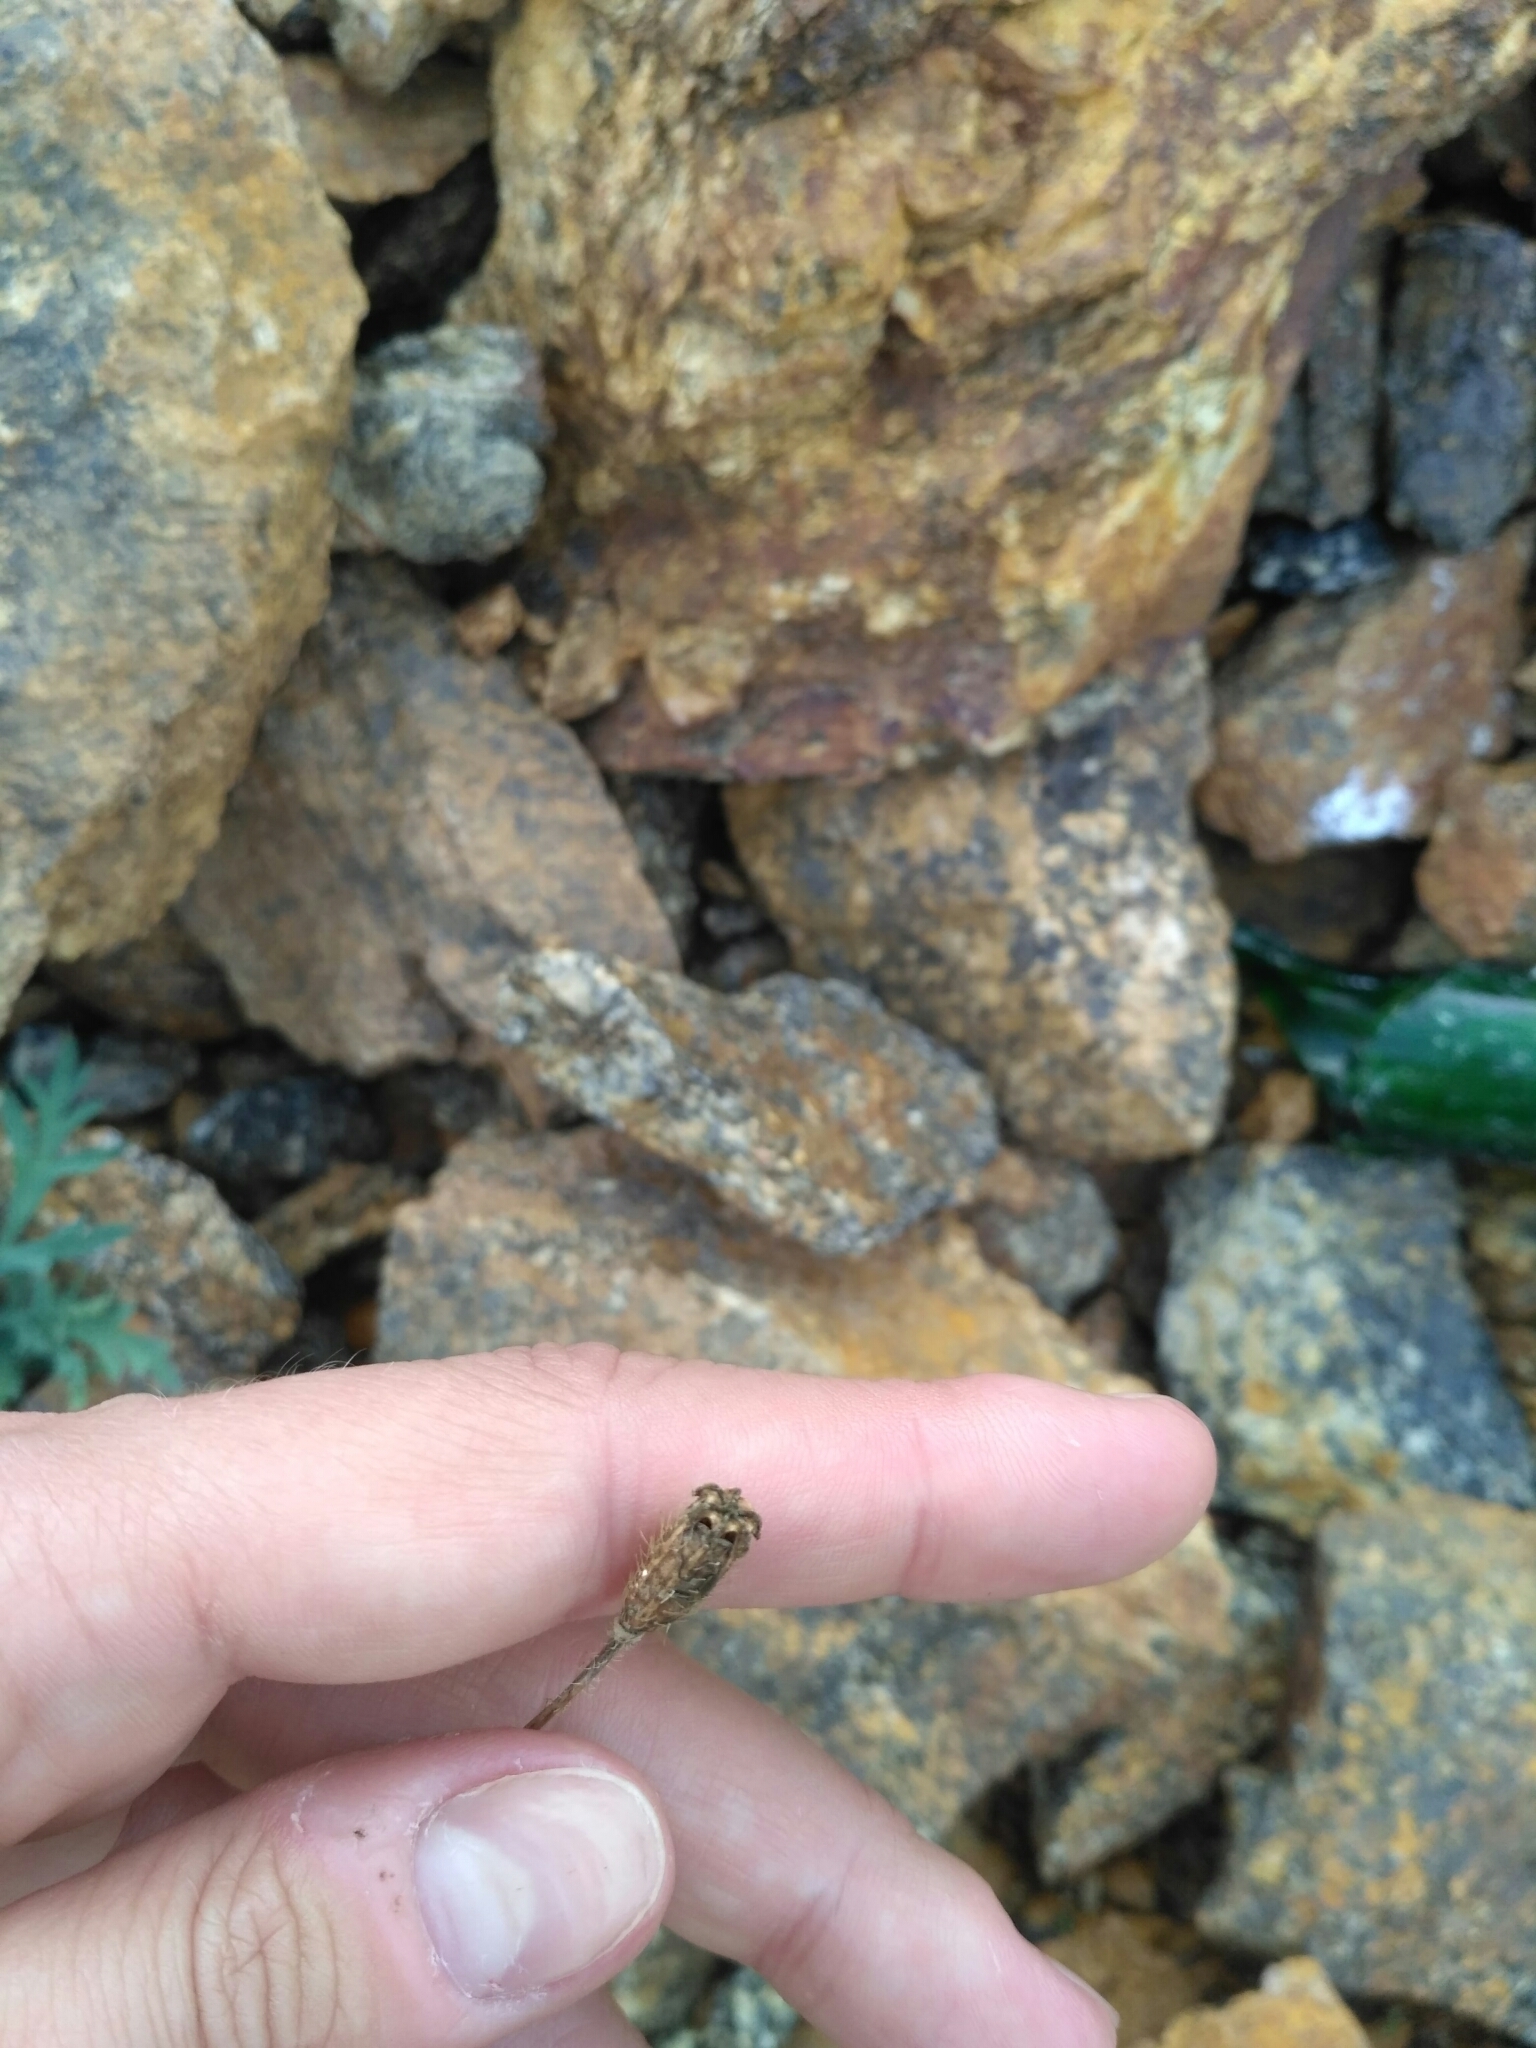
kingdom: Plantae
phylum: Tracheophyta
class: Magnoliopsida
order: Ranunculales
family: Papaveraceae
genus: Papaver
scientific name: Papaver olchonense
